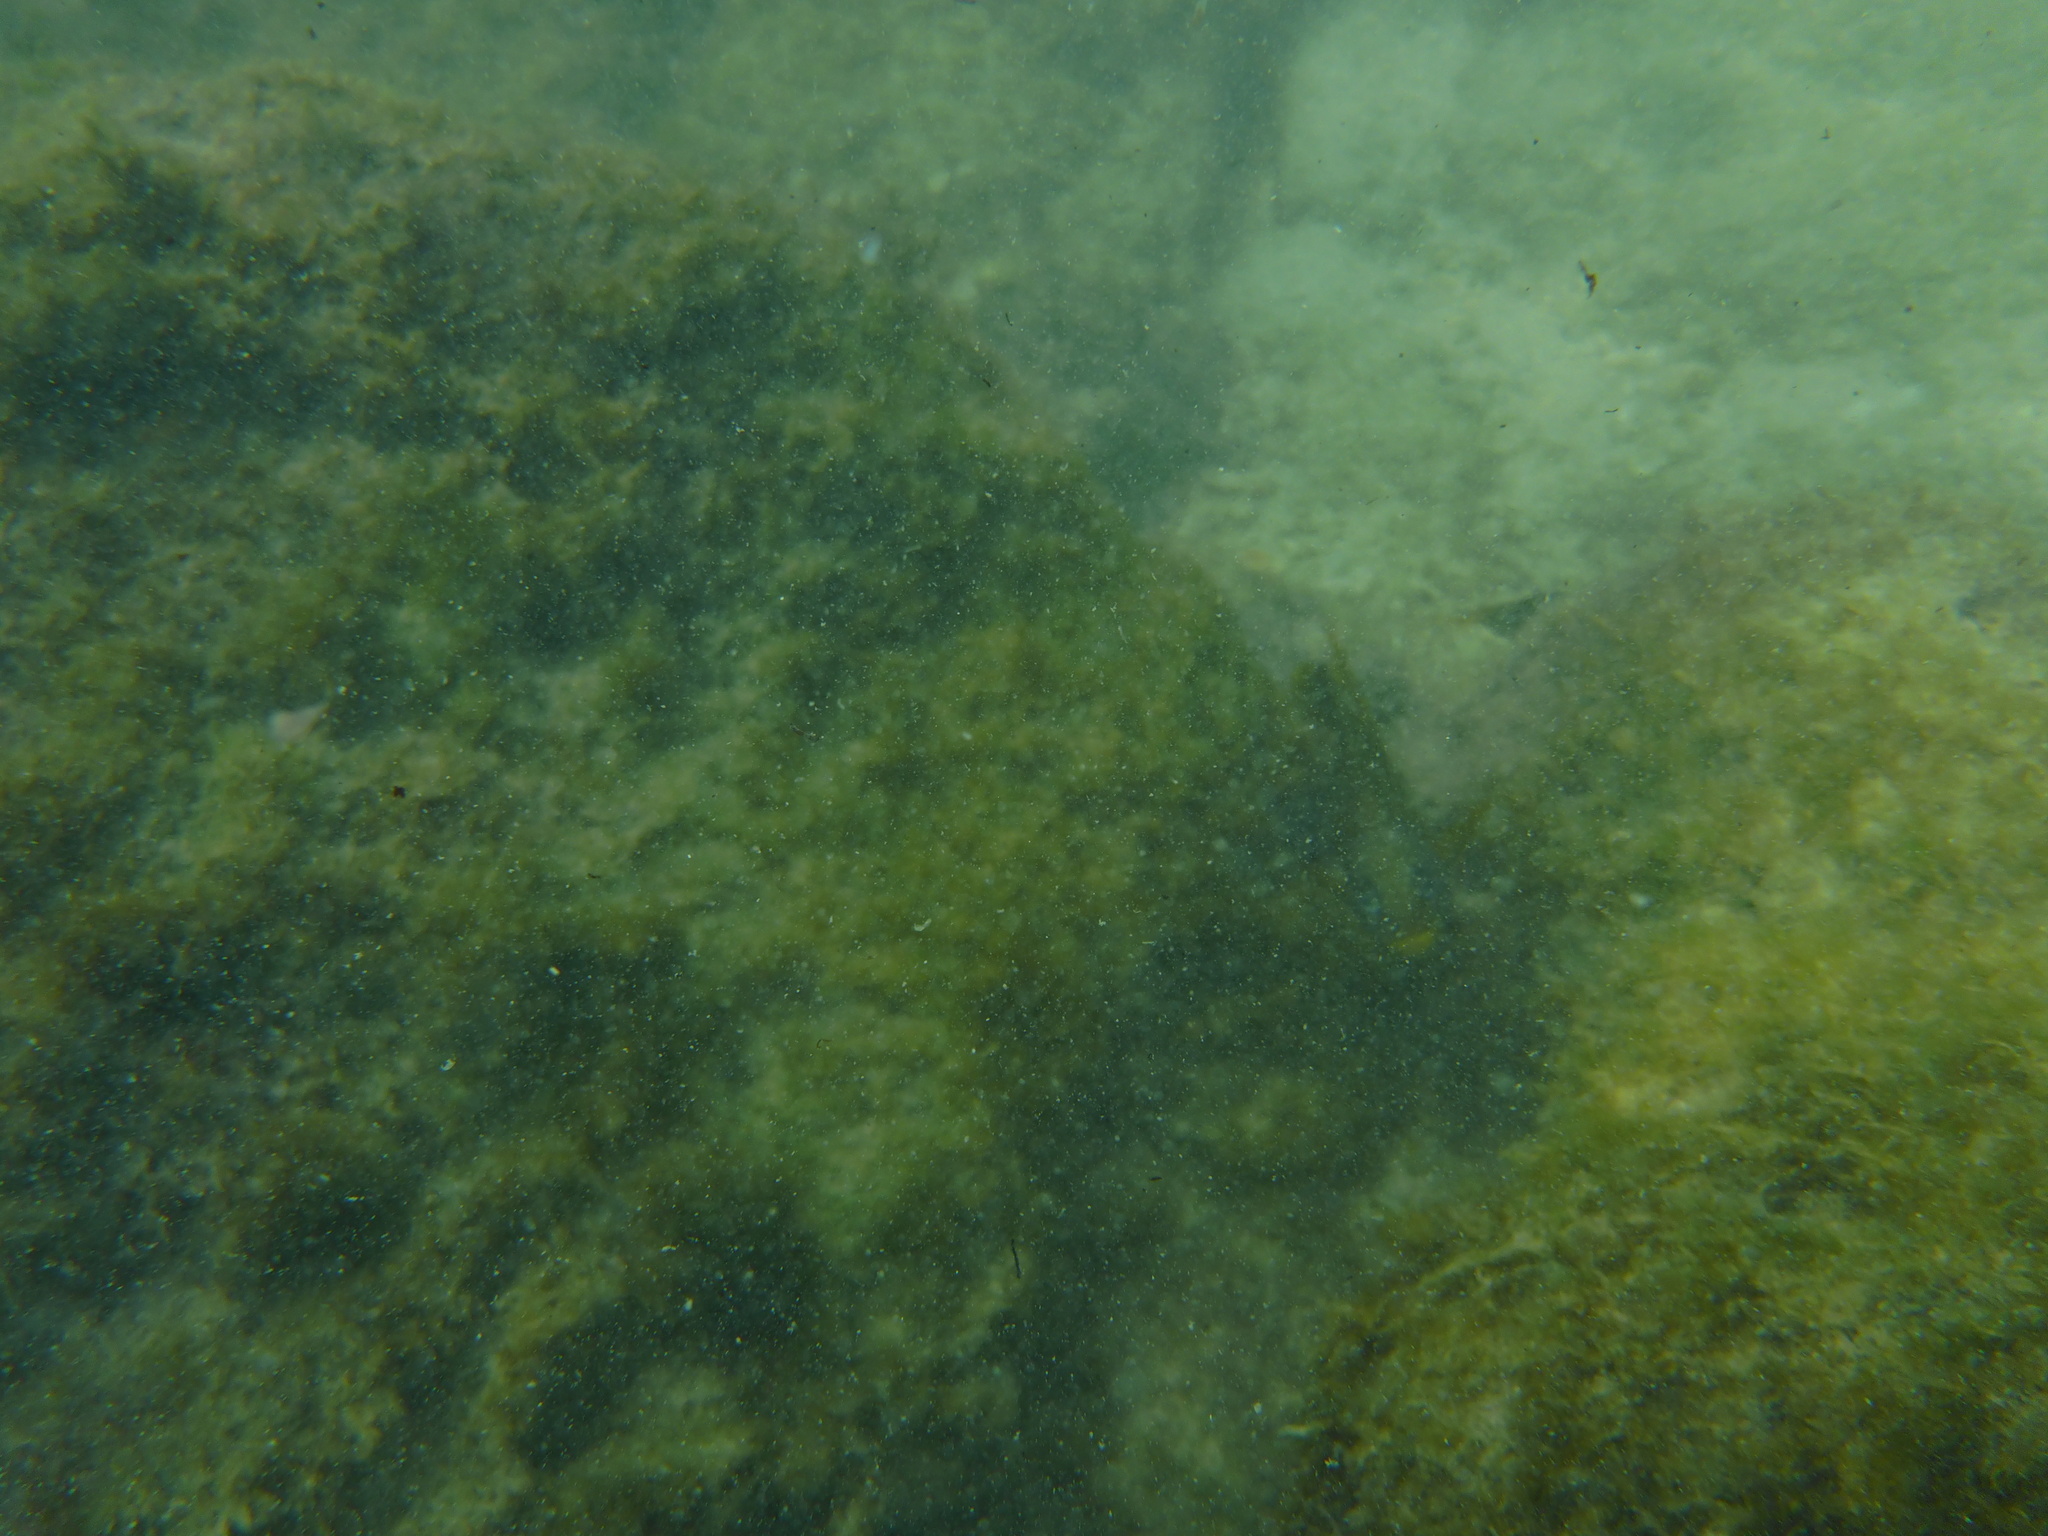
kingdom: Animalia
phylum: Chordata
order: Perciformes
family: Pomacentridae
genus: Stegastes
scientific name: Stegastes arcifrons
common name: Galapagos gregory
